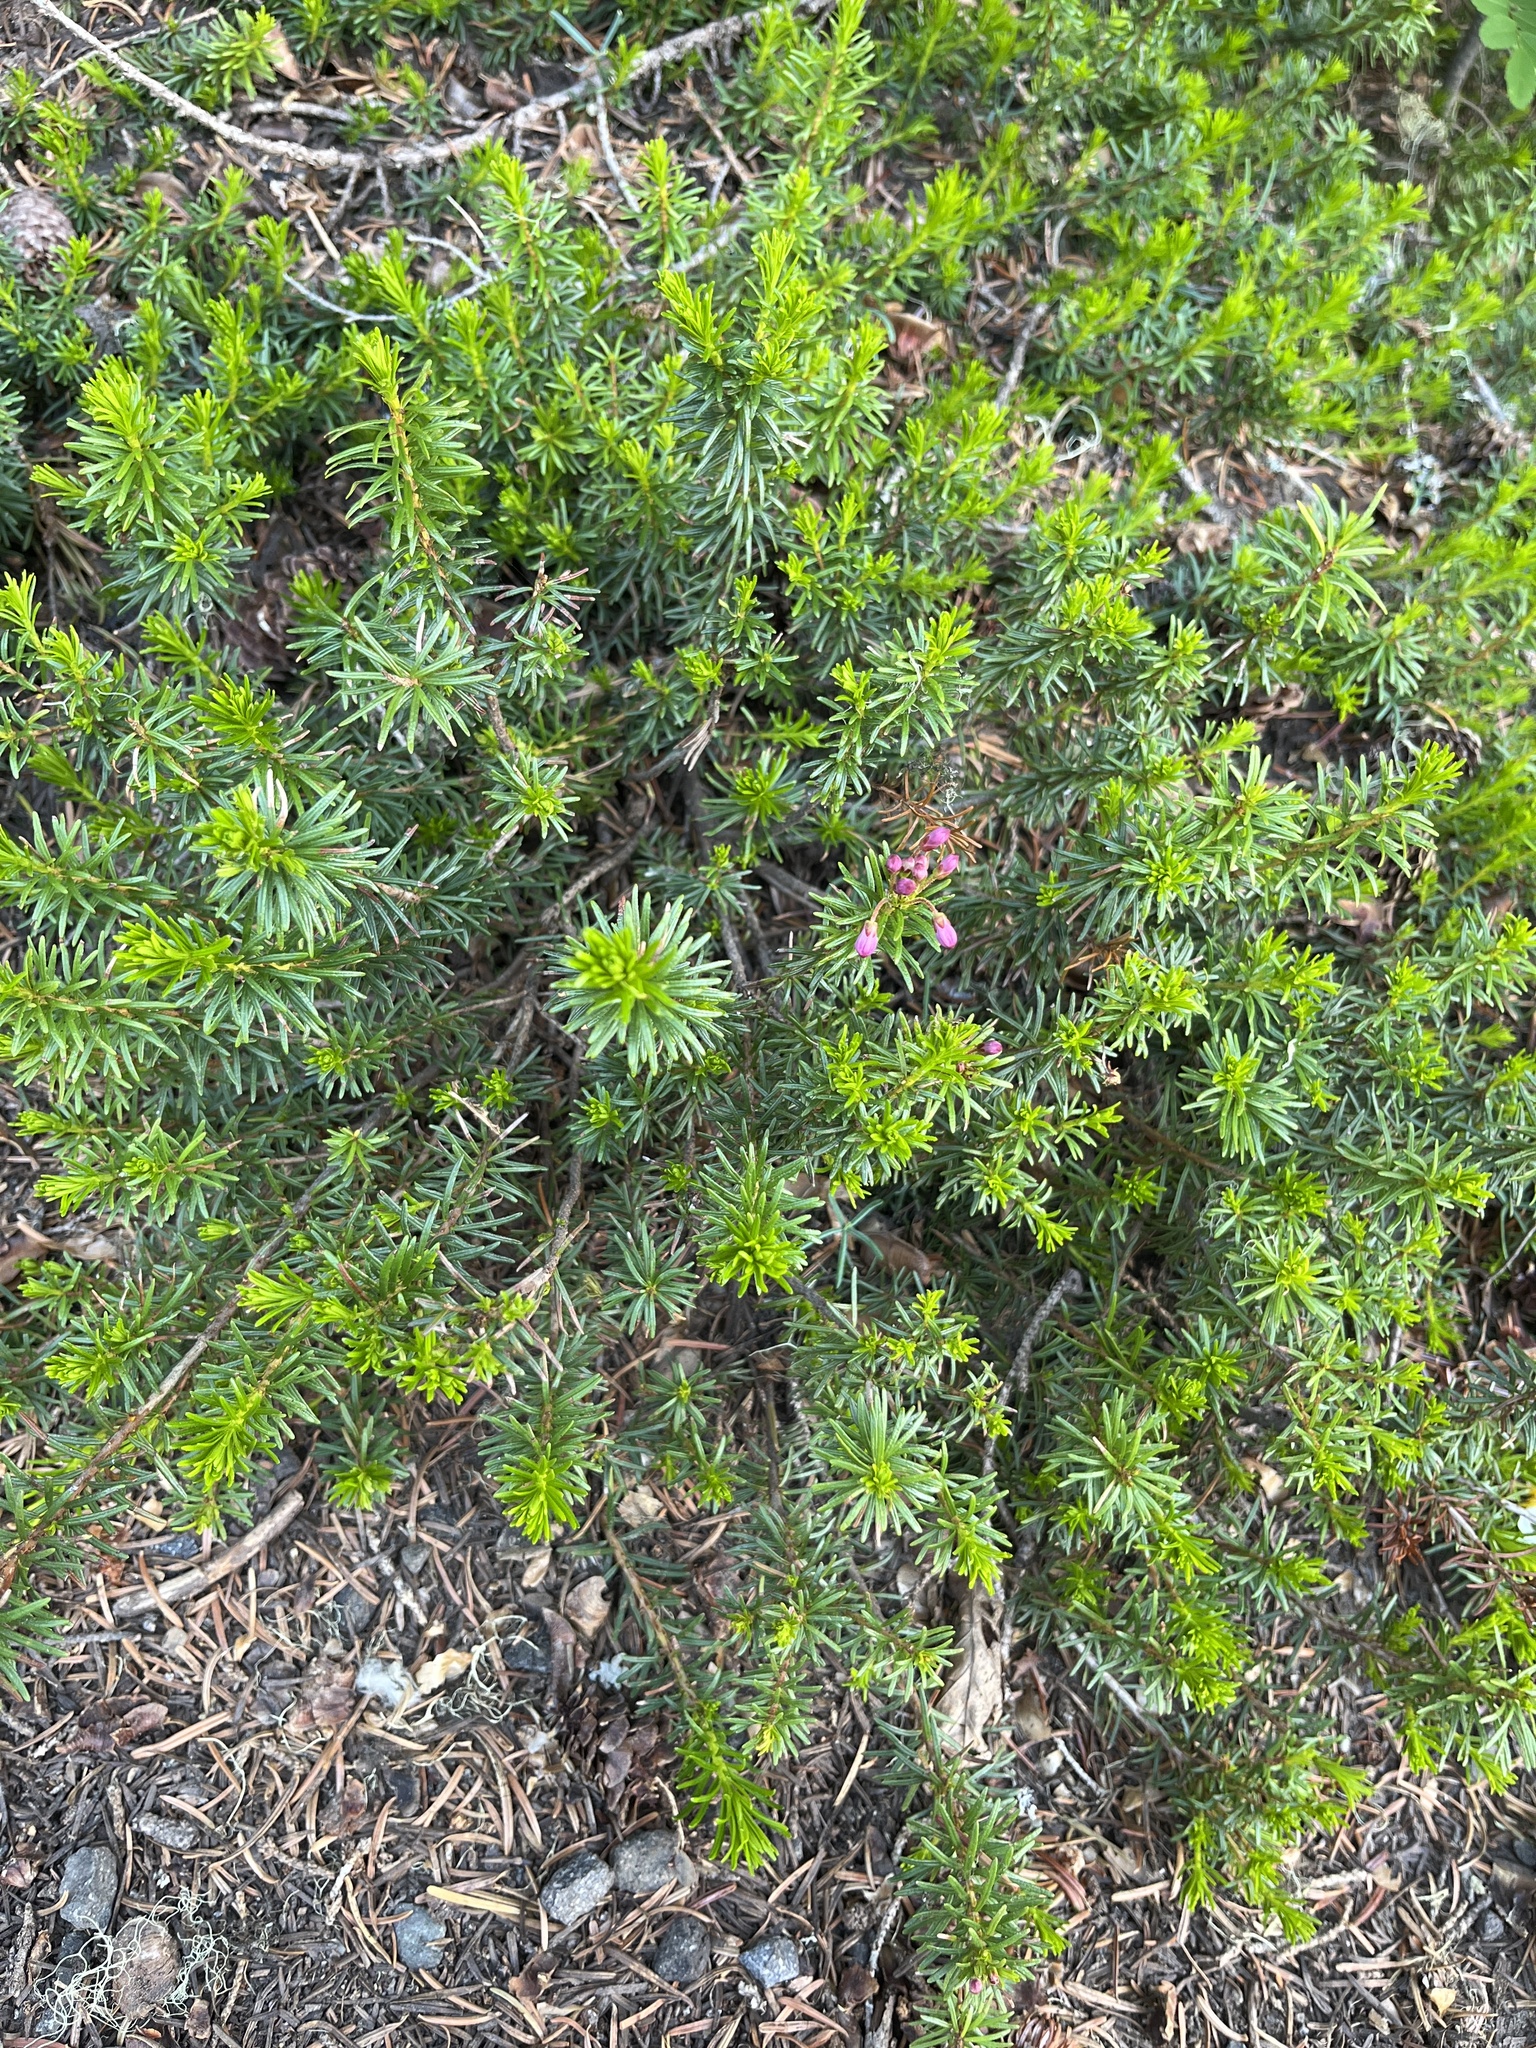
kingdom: Plantae
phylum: Tracheophyta
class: Magnoliopsida
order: Ericales
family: Ericaceae
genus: Phyllodoce
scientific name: Phyllodoce empetriformis
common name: Pink mountain heather
